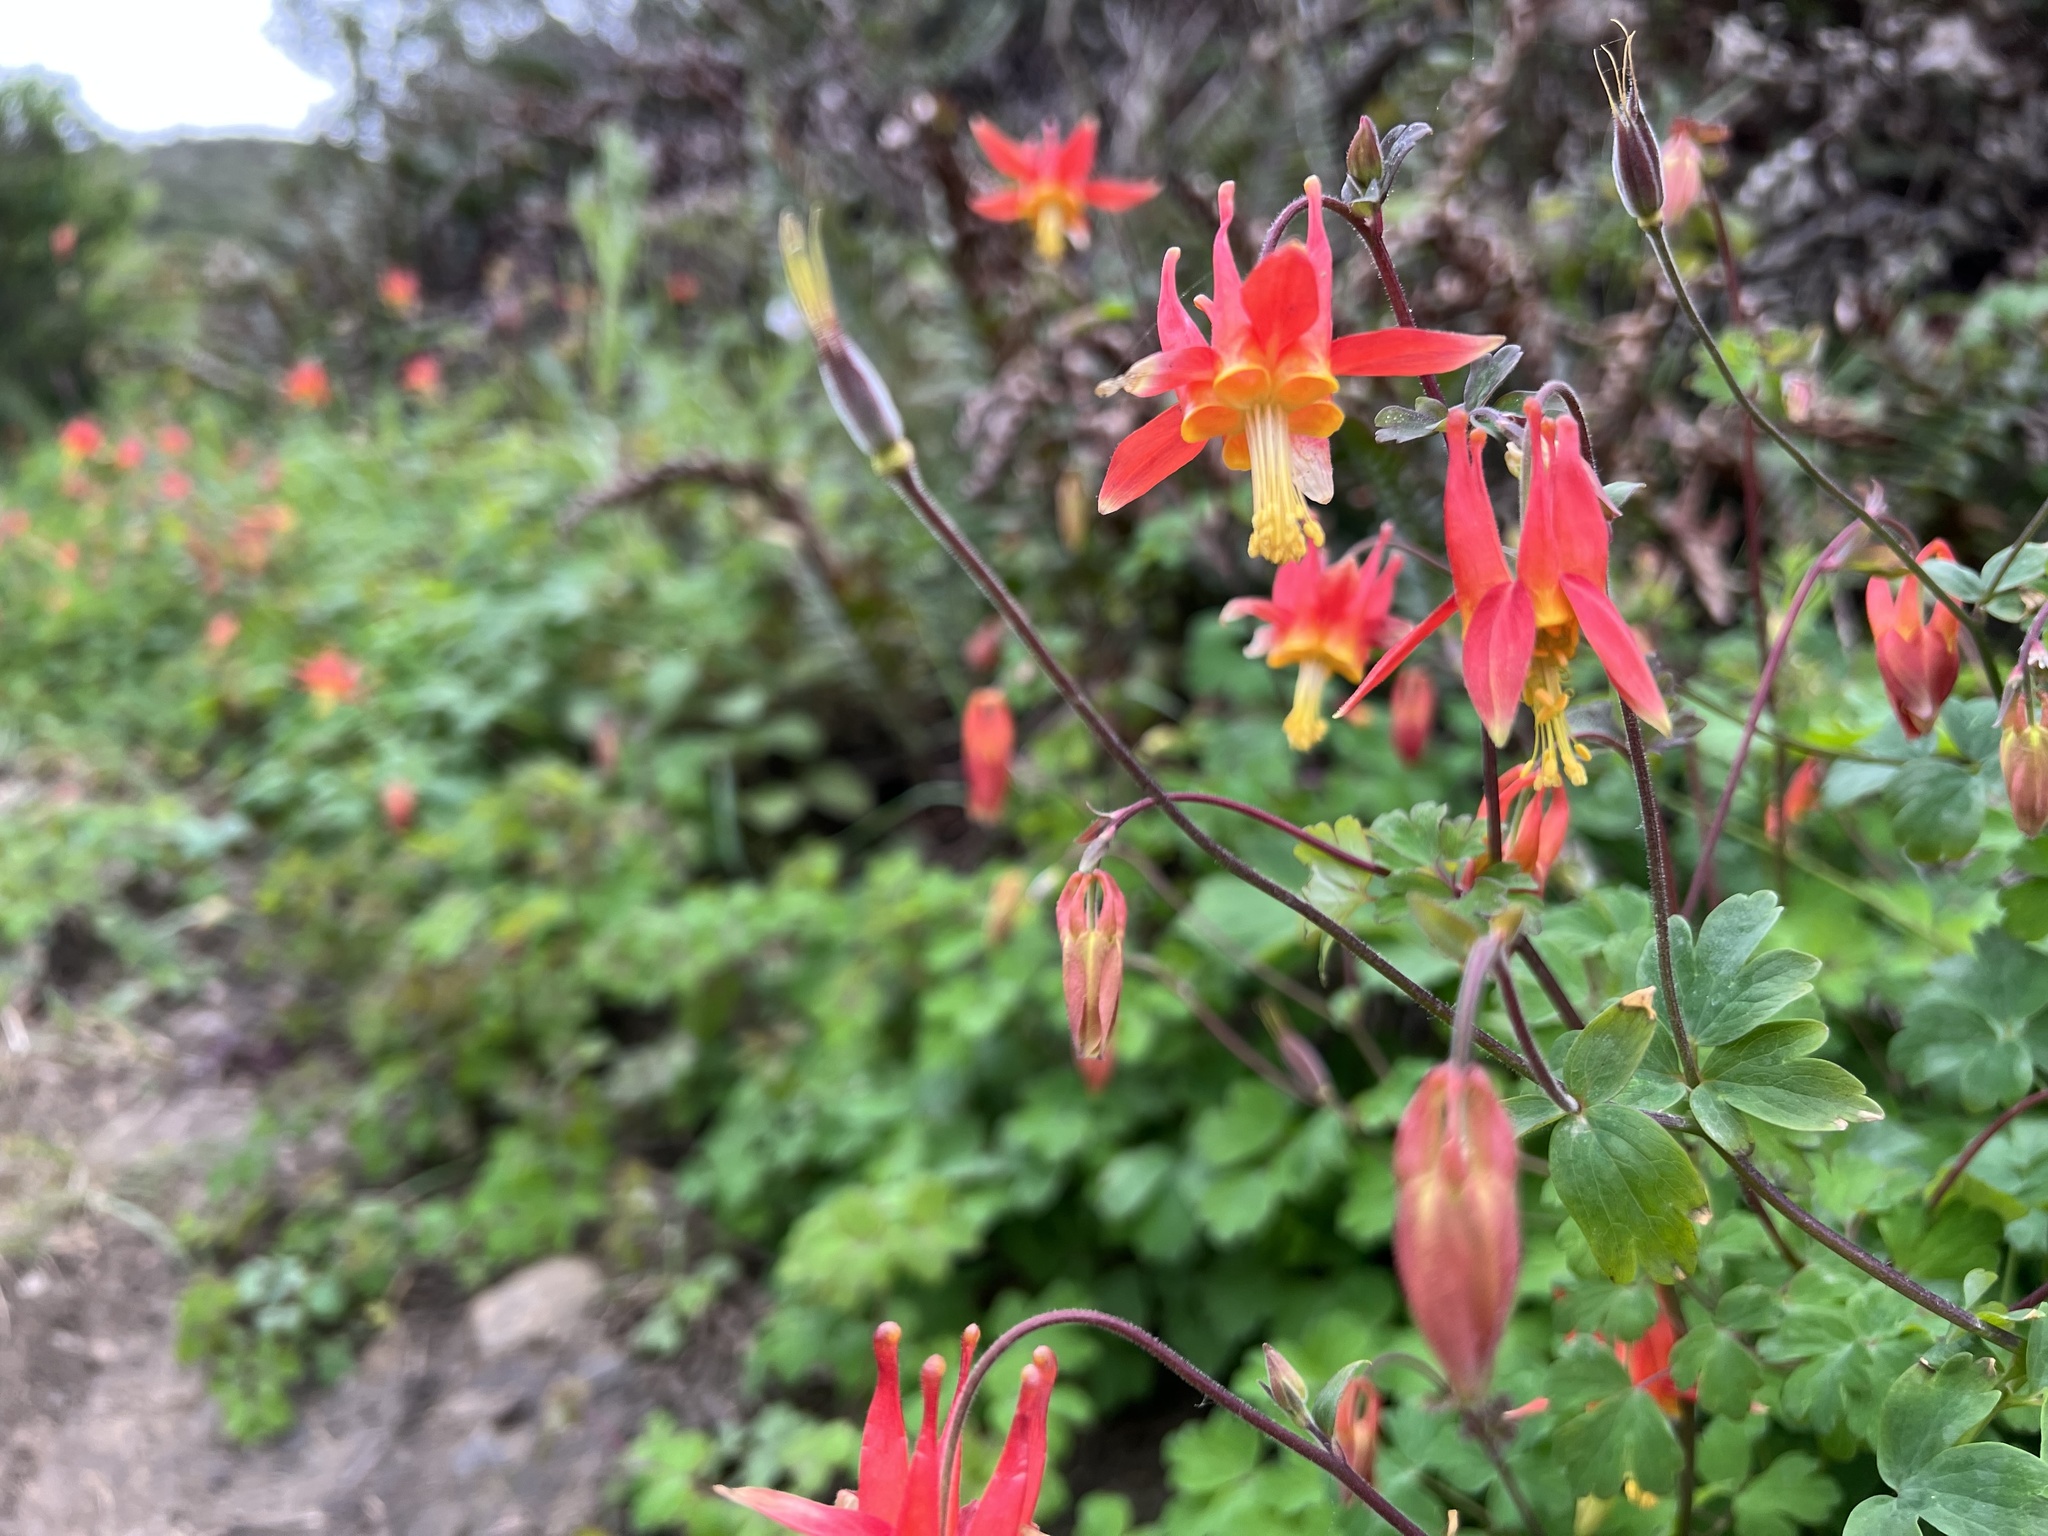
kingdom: Plantae
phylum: Tracheophyta
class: Magnoliopsida
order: Ranunculales
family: Ranunculaceae
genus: Aquilegia
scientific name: Aquilegia formosa
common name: Sitka columbine
